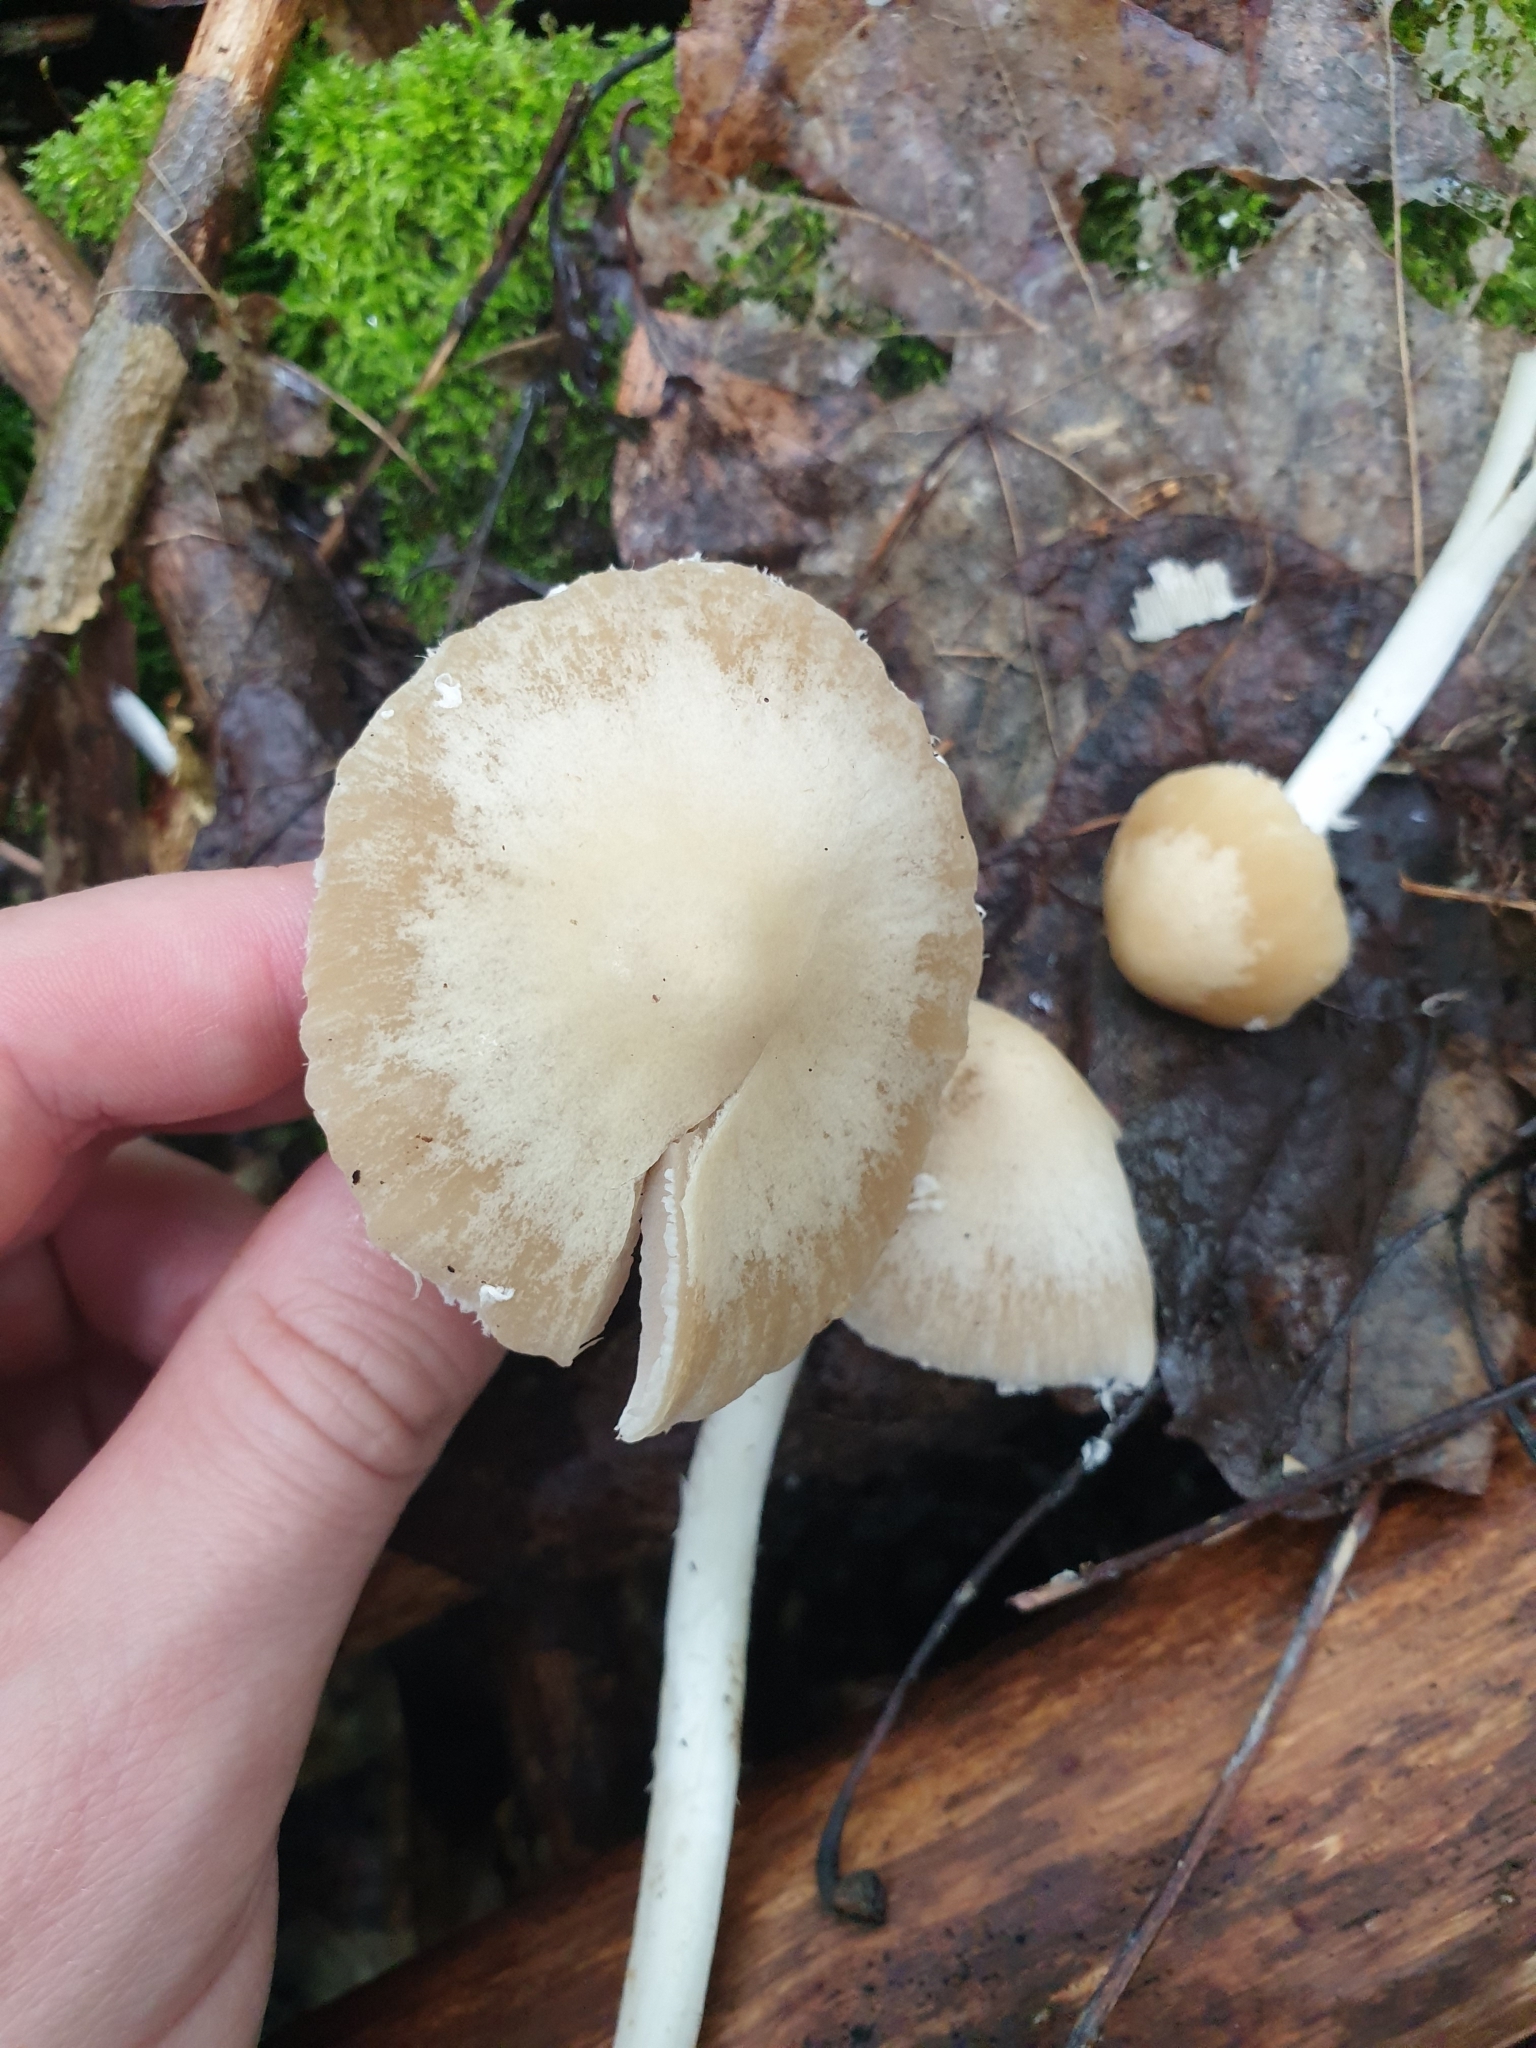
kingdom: Fungi
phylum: Basidiomycota
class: Agaricomycetes
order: Agaricales
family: Psathyrellaceae
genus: Candolleomyces
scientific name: Candolleomyces candolleanus
